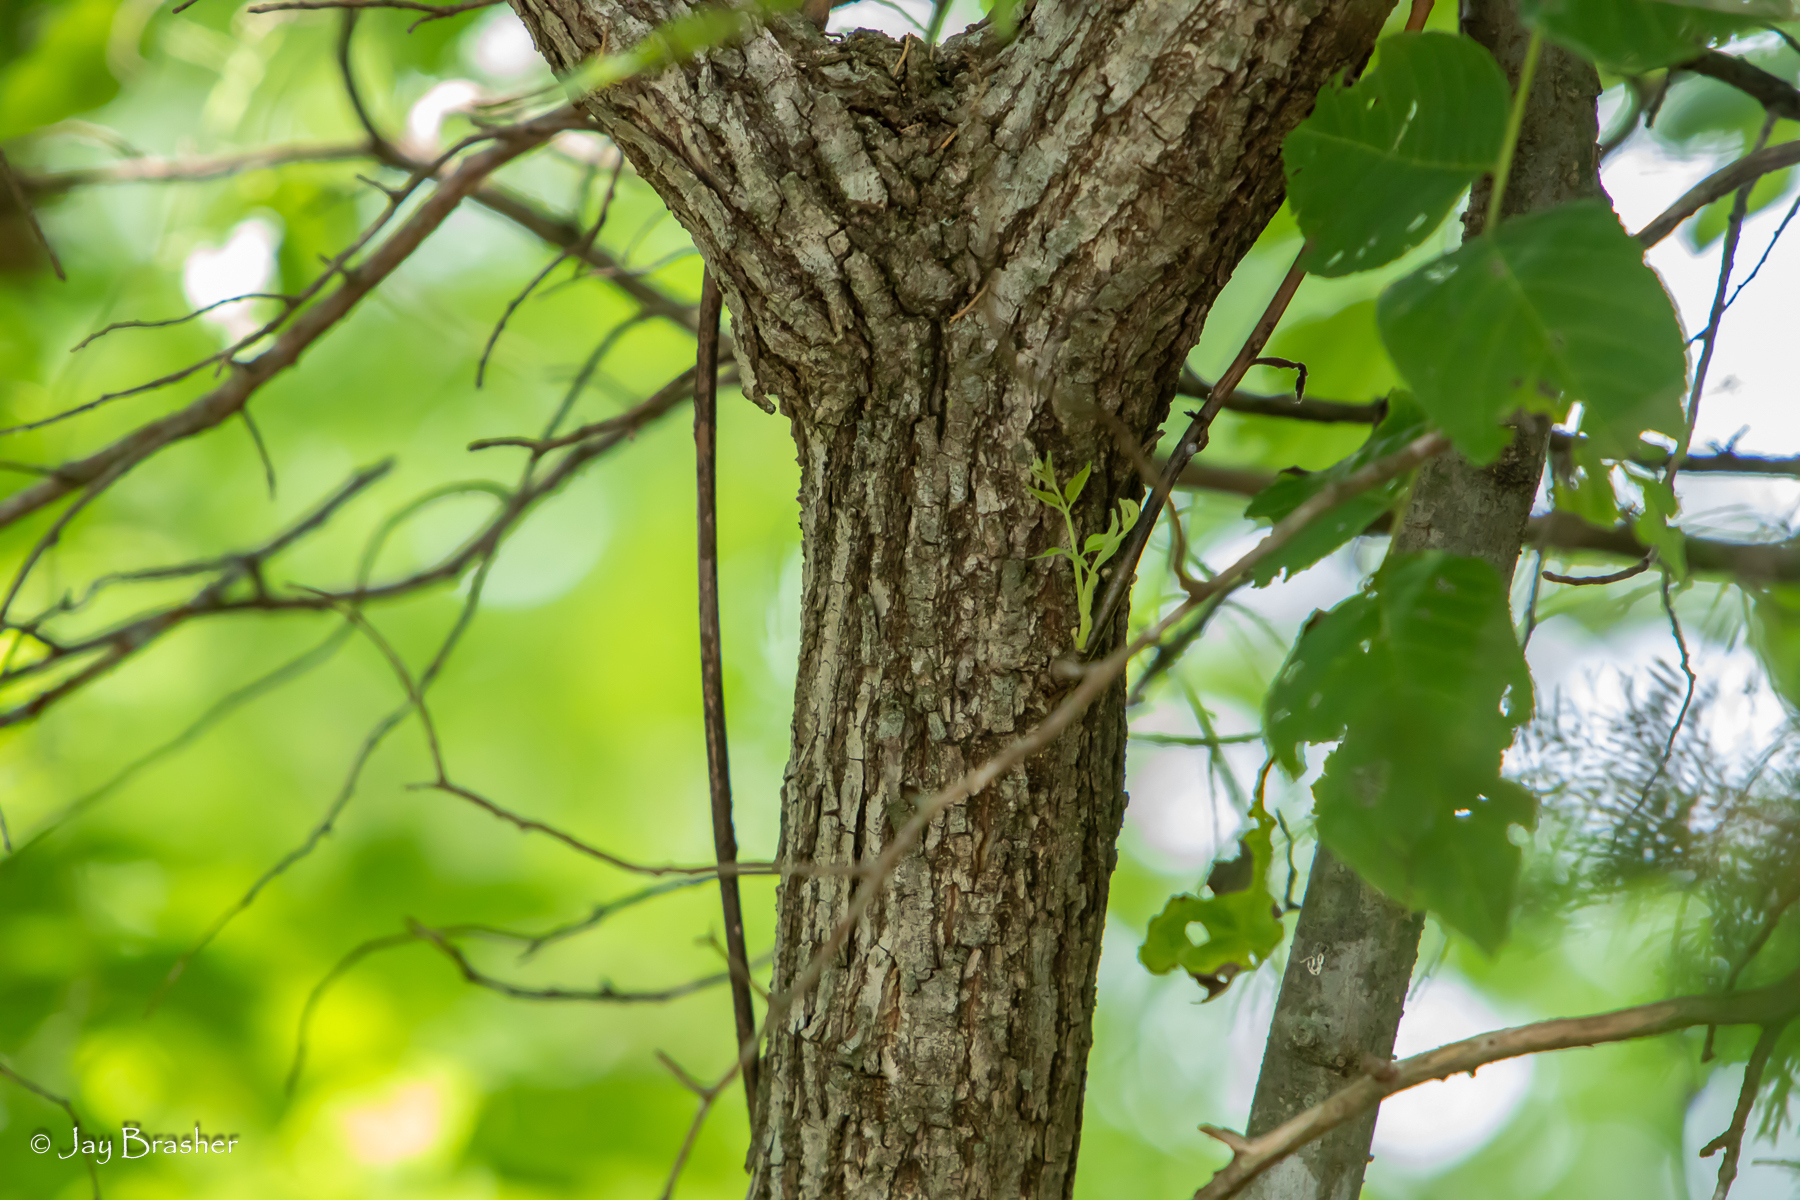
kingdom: Plantae
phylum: Tracheophyta
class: Magnoliopsida
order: Fagales
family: Juglandaceae
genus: Juglans
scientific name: Juglans nigra
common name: Black walnut
